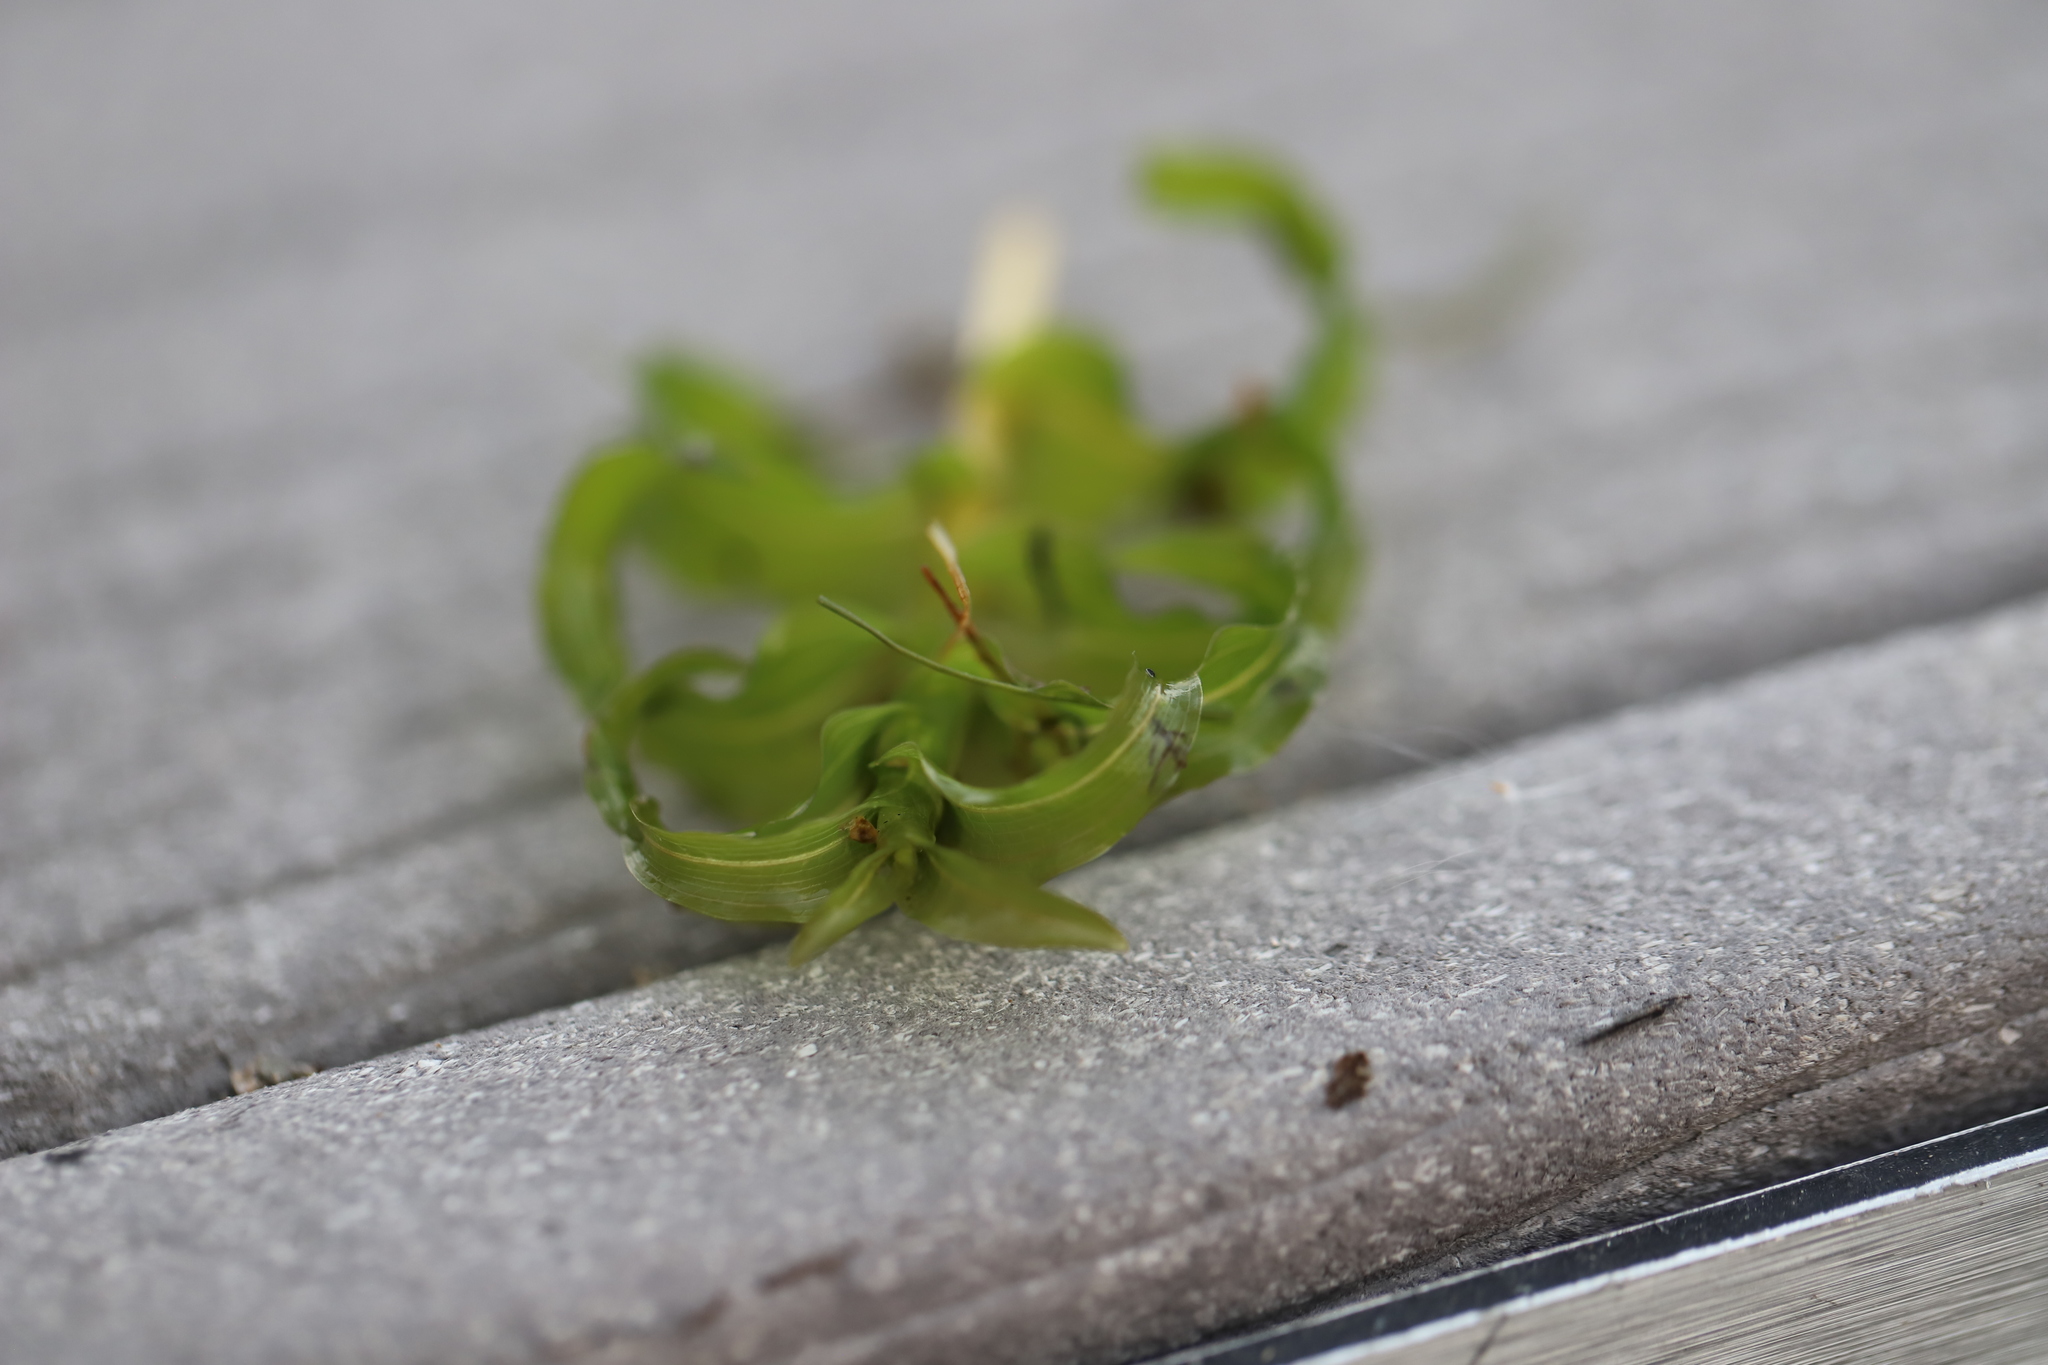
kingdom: Plantae
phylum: Tracheophyta
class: Liliopsida
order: Alismatales
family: Potamogetonaceae
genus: Potamogeton
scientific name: Potamogeton richardsonii
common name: Richardson's pondweed
